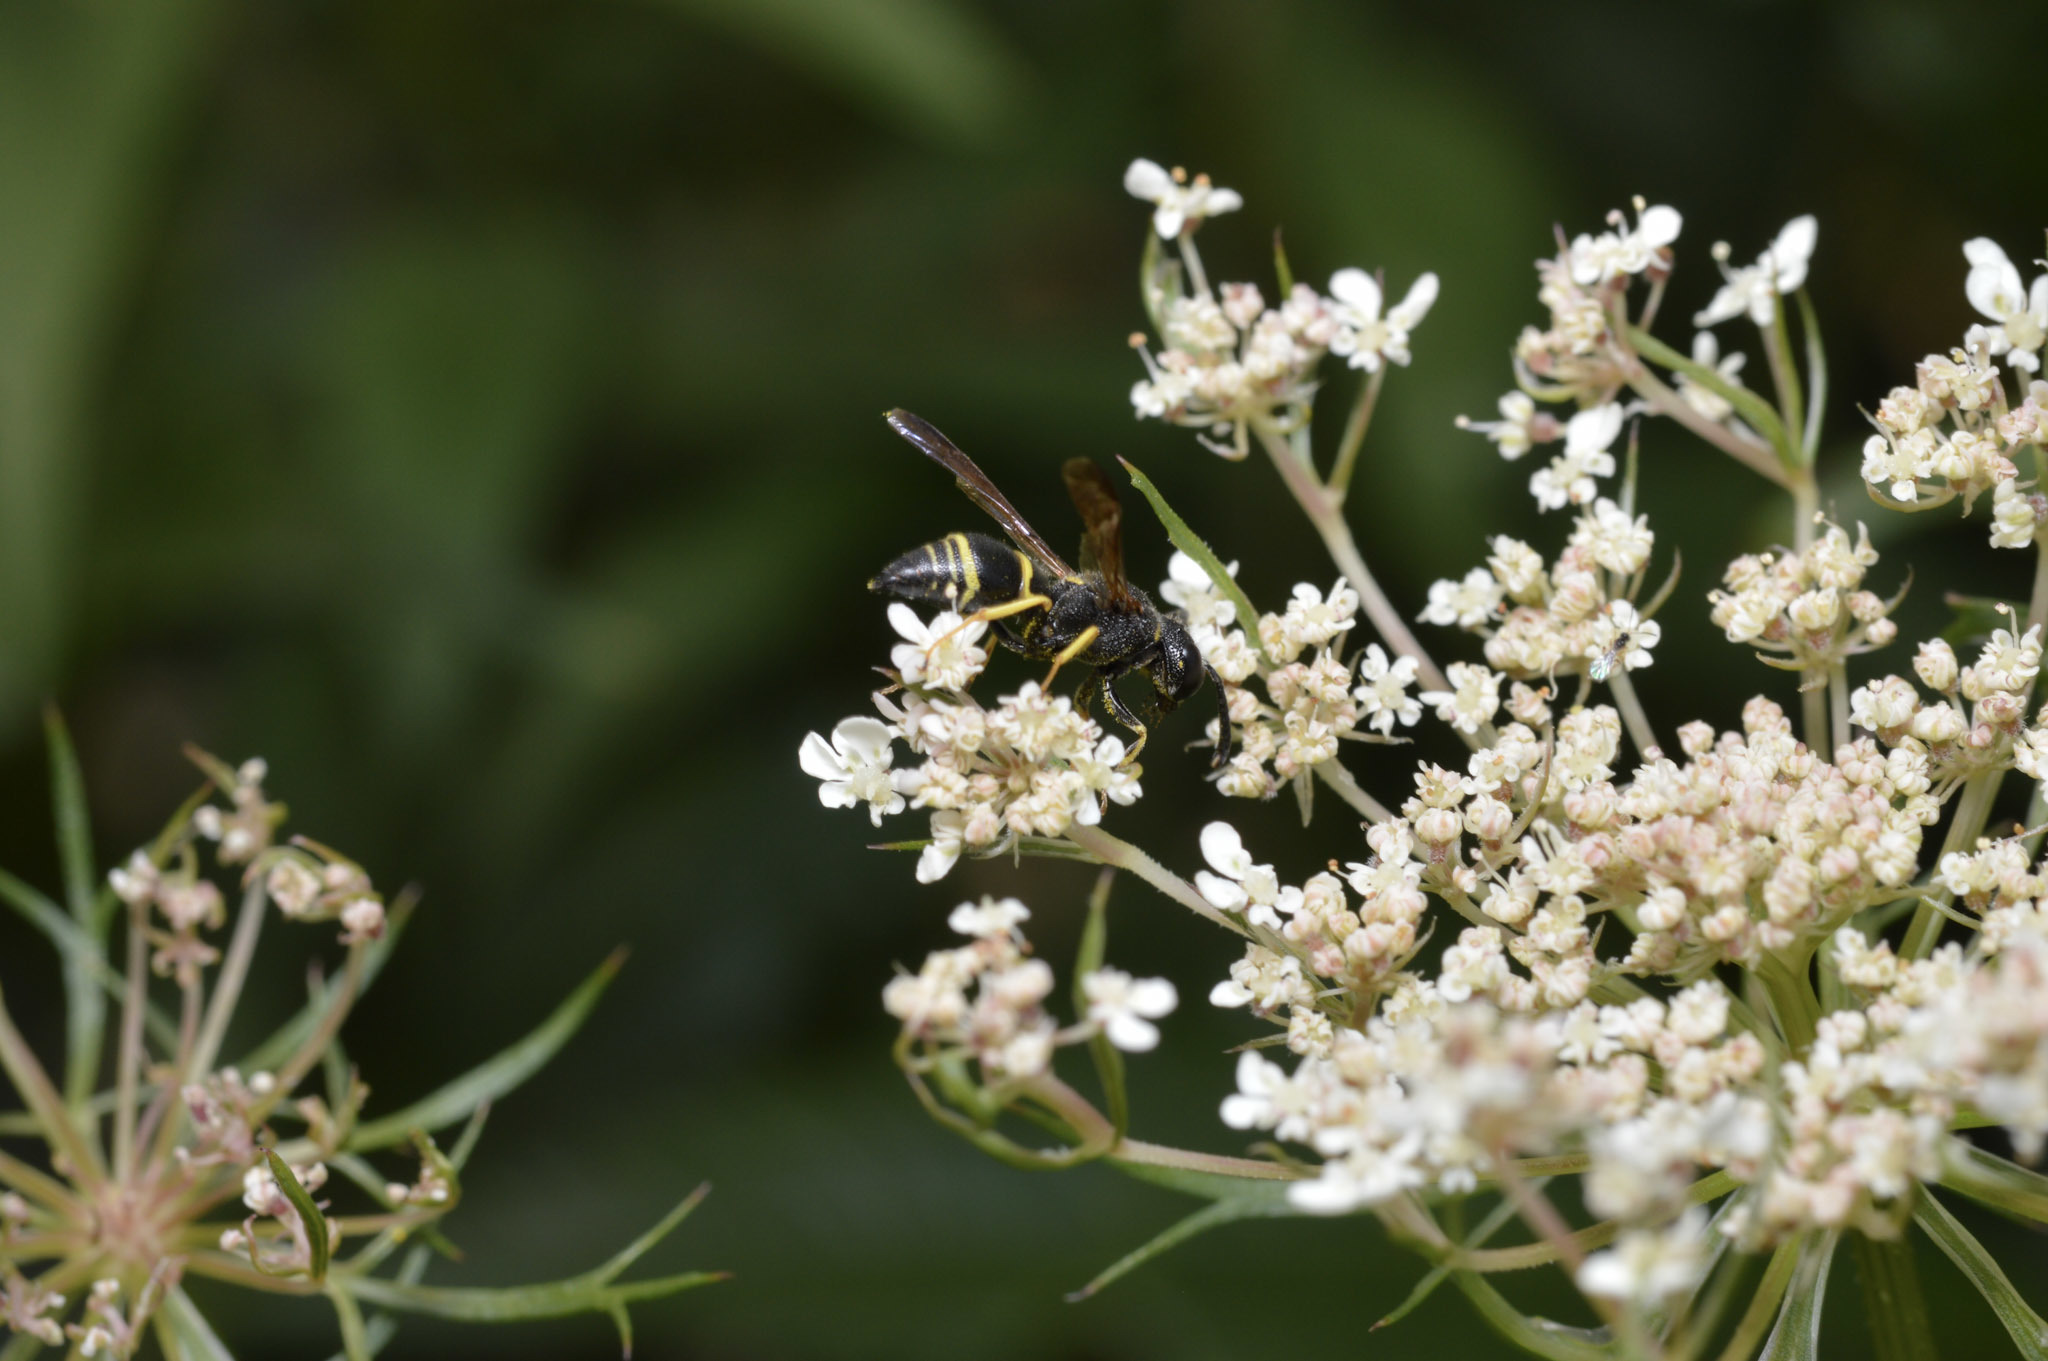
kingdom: Animalia
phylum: Arthropoda
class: Insecta
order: Hymenoptera
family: Eumenidae
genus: Euodynerus
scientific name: Euodynerus foraminatus
